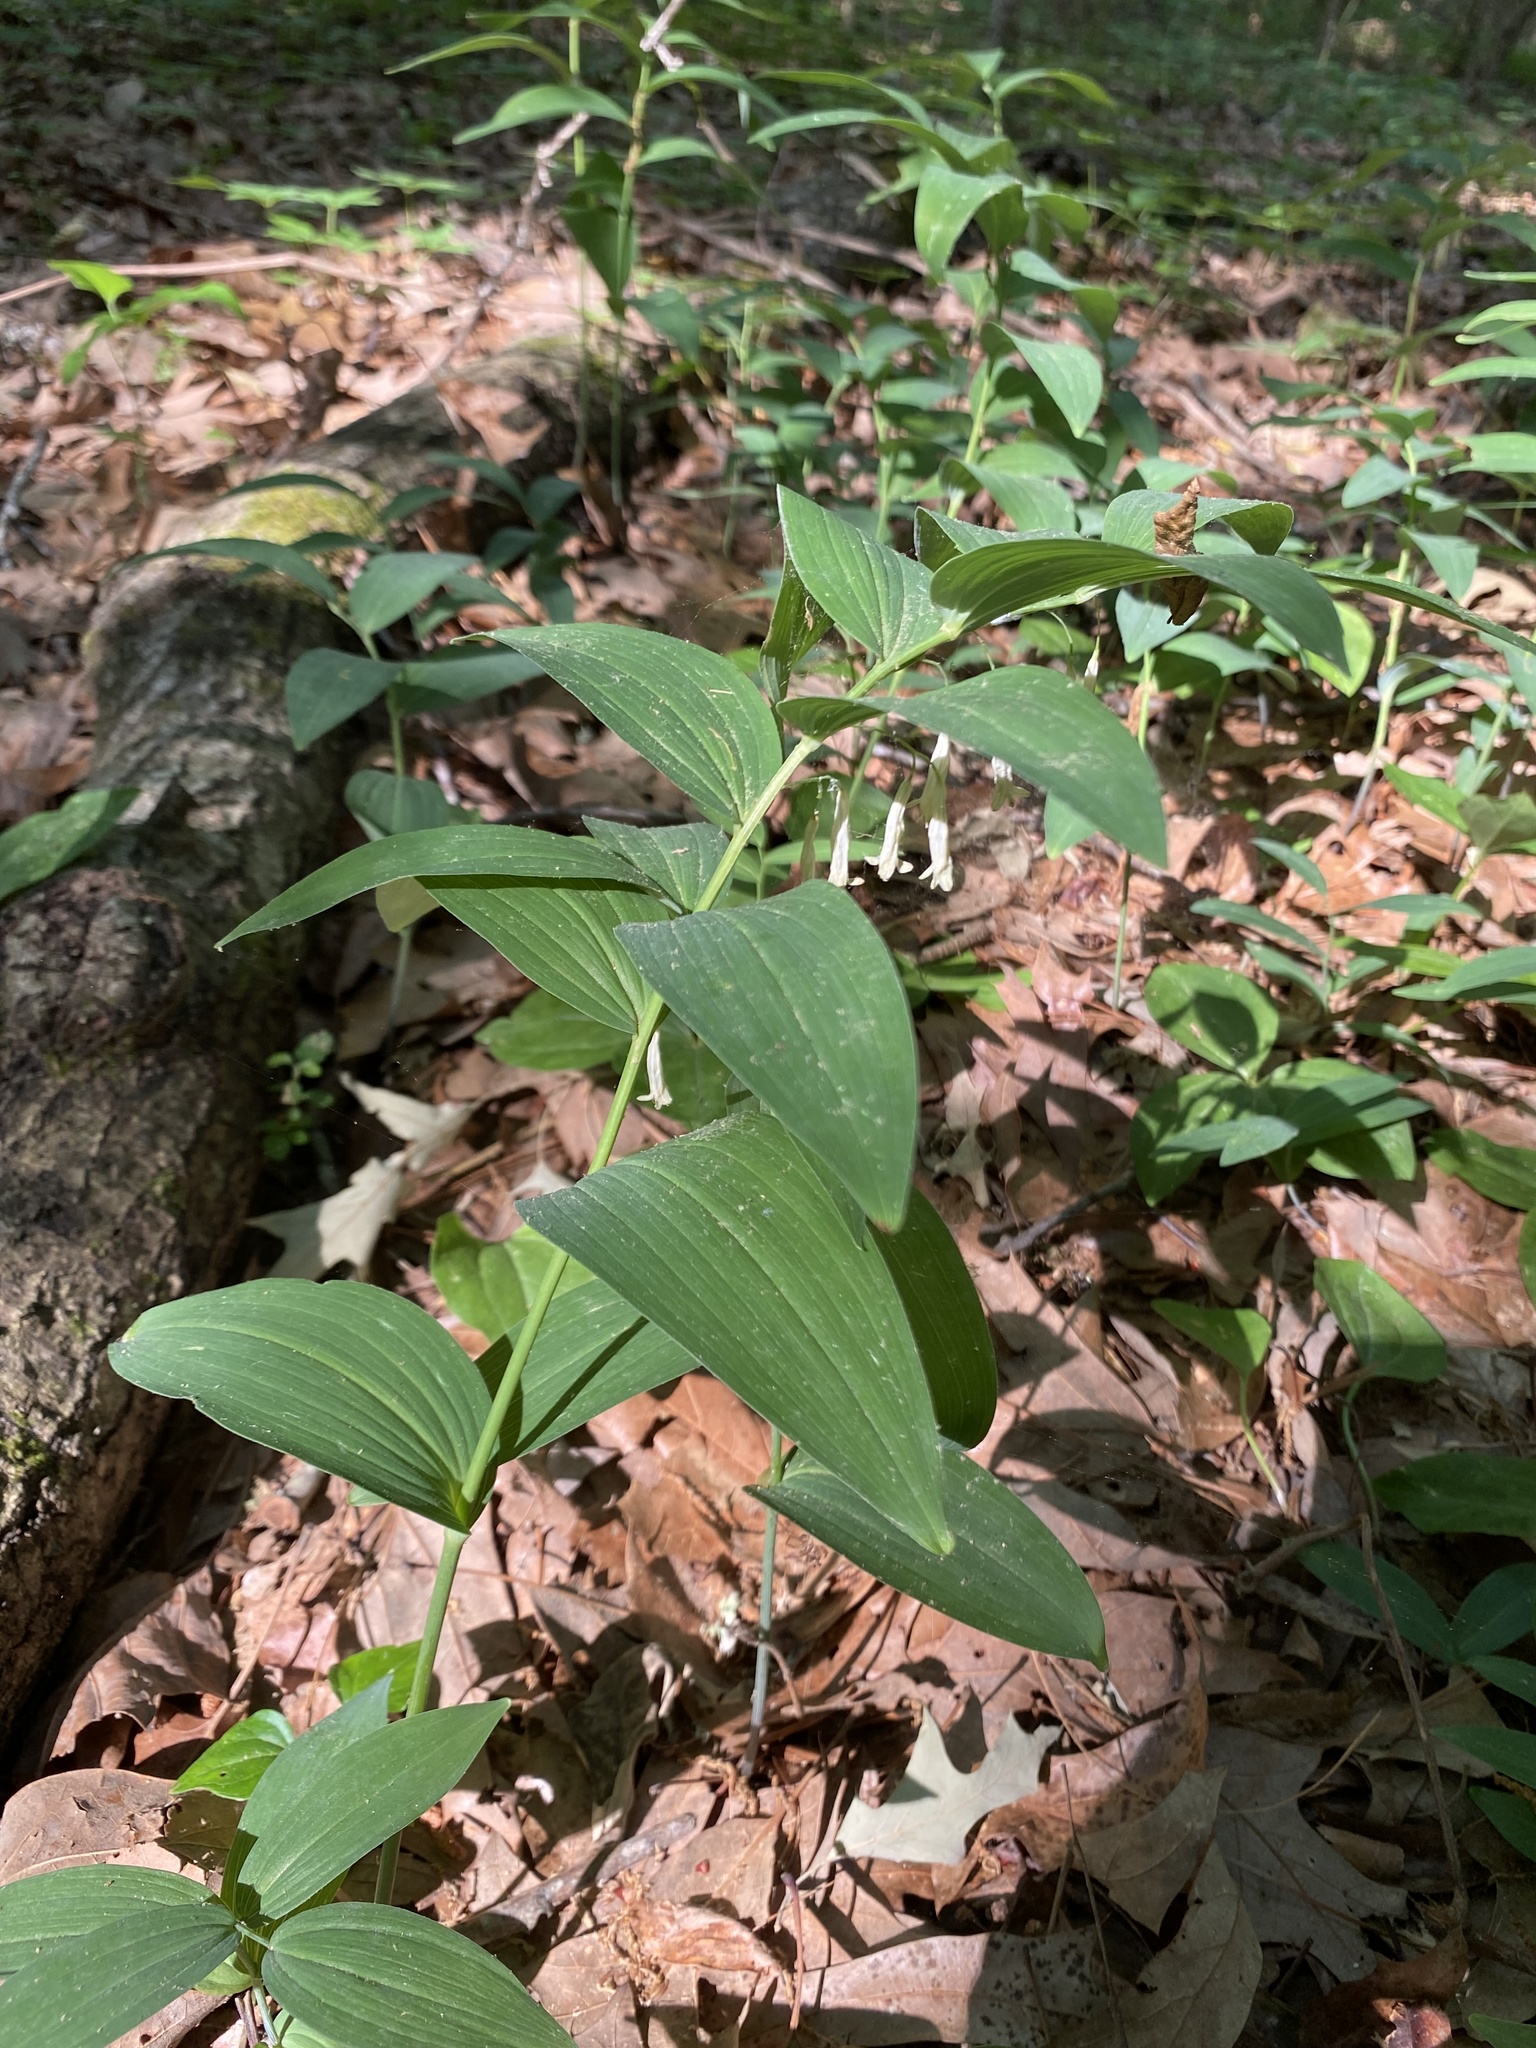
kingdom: Plantae
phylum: Tracheophyta
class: Liliopsida
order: Asparagales
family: Asparagaceae
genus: Polygonatum
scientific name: Polygonatum biflorum
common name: American solomon's-seal
